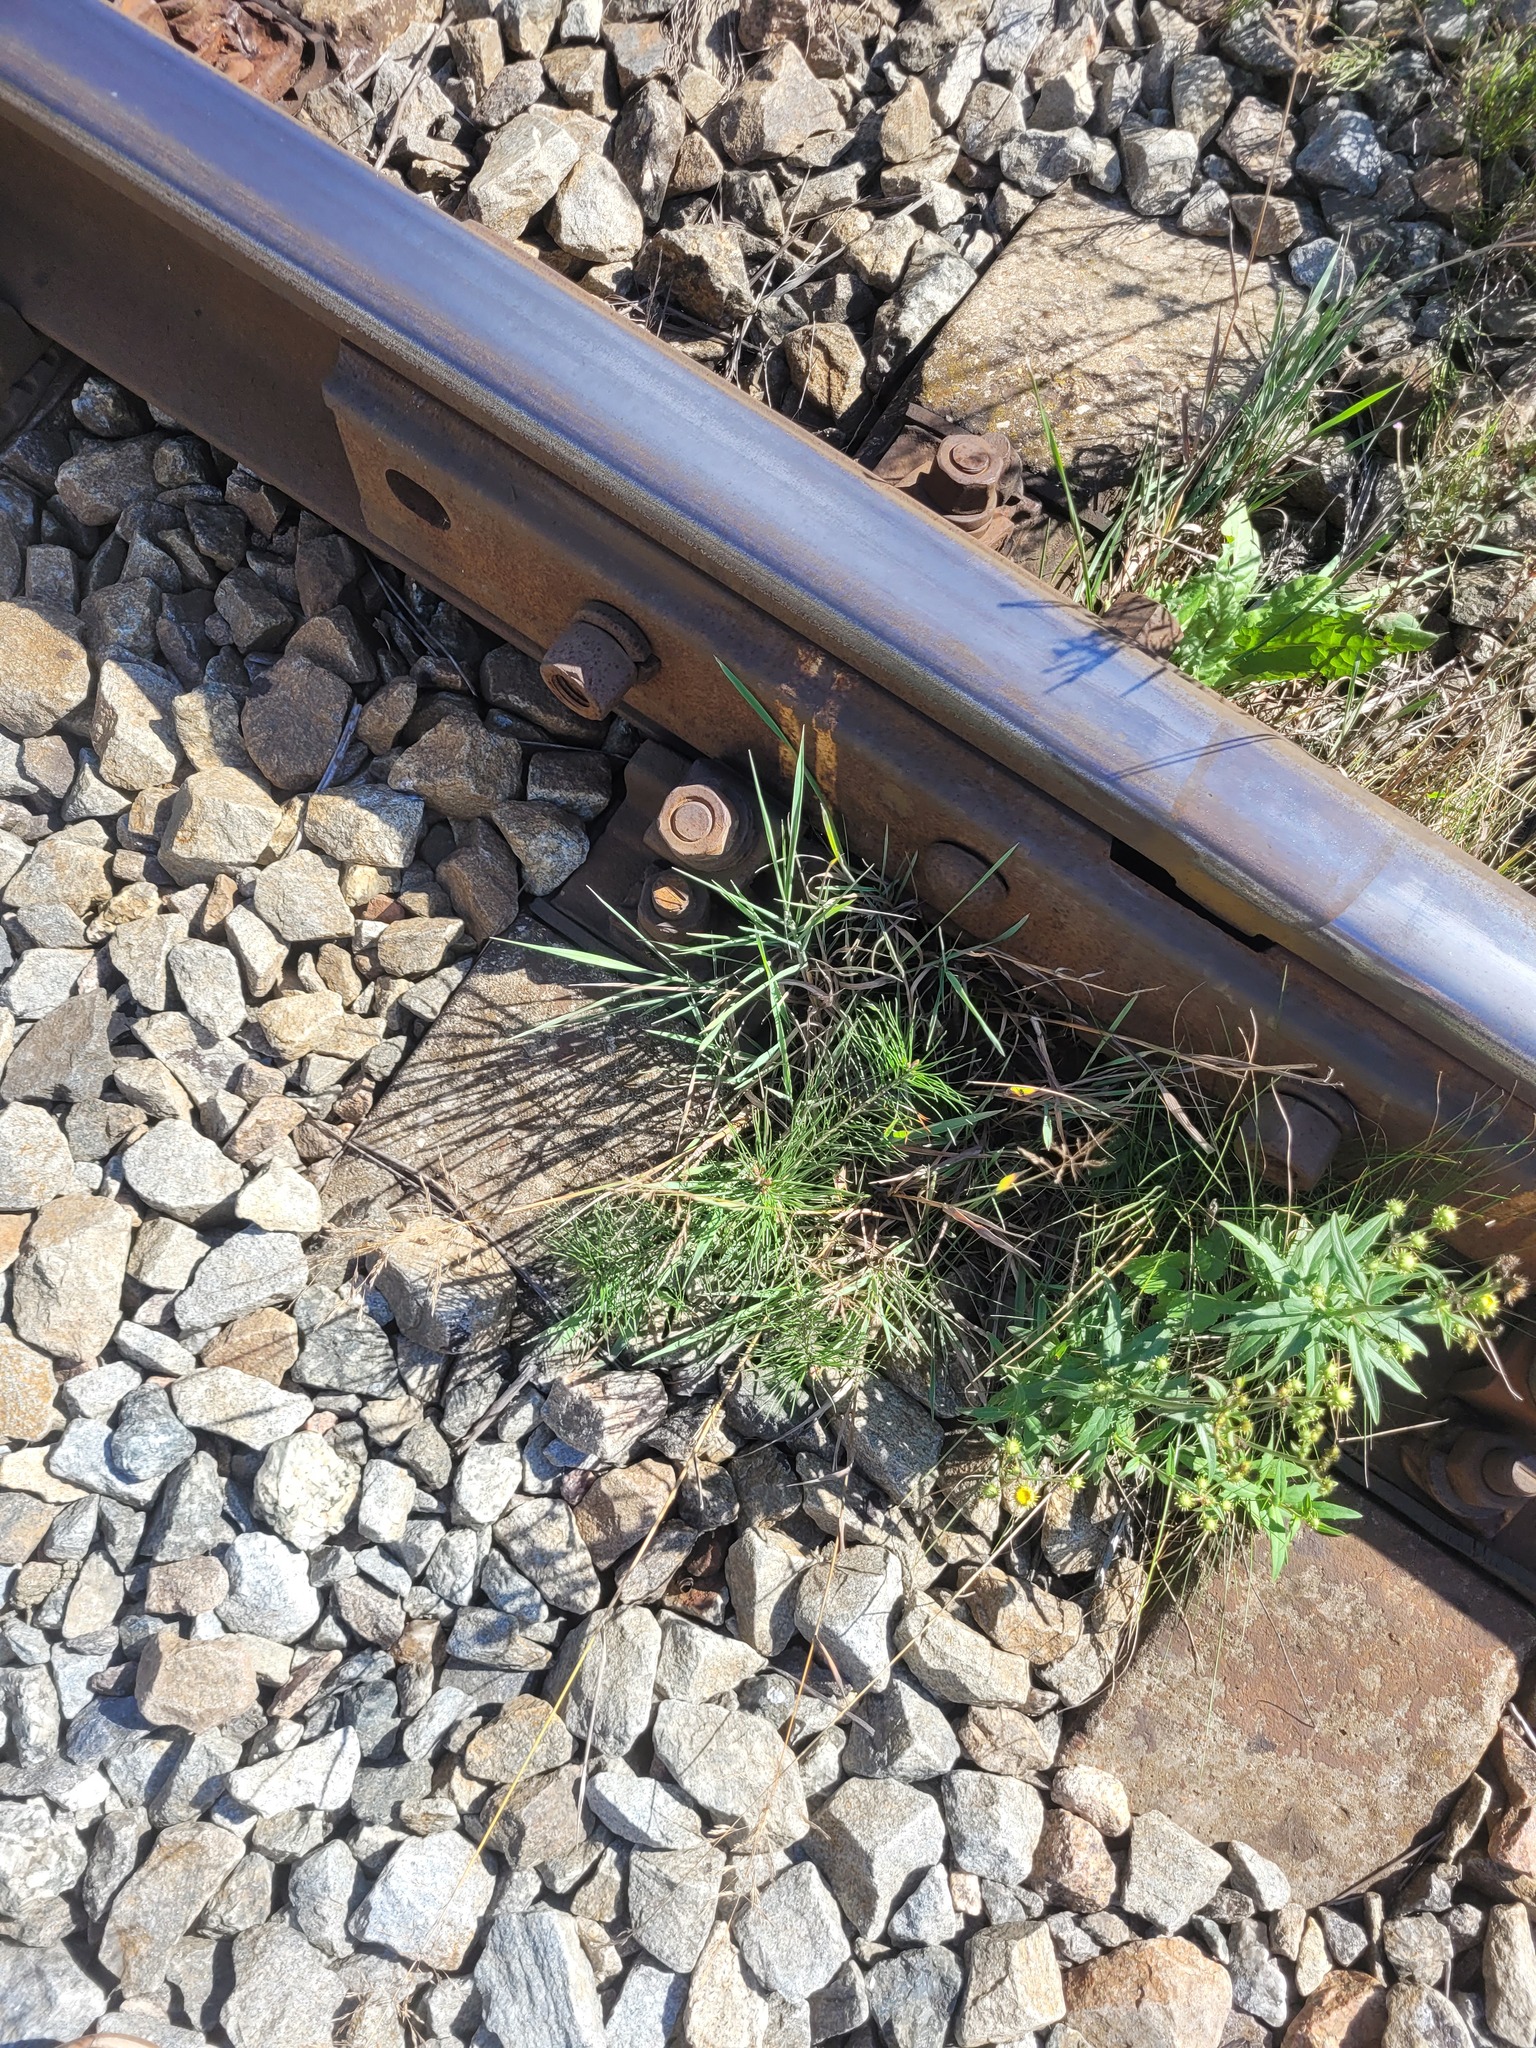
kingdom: Plantae
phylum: Tracheophyta
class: Pinopsida
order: Pinales
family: Pinaceae
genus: Pinus
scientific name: Pinus sylvestris
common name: Scots pine
